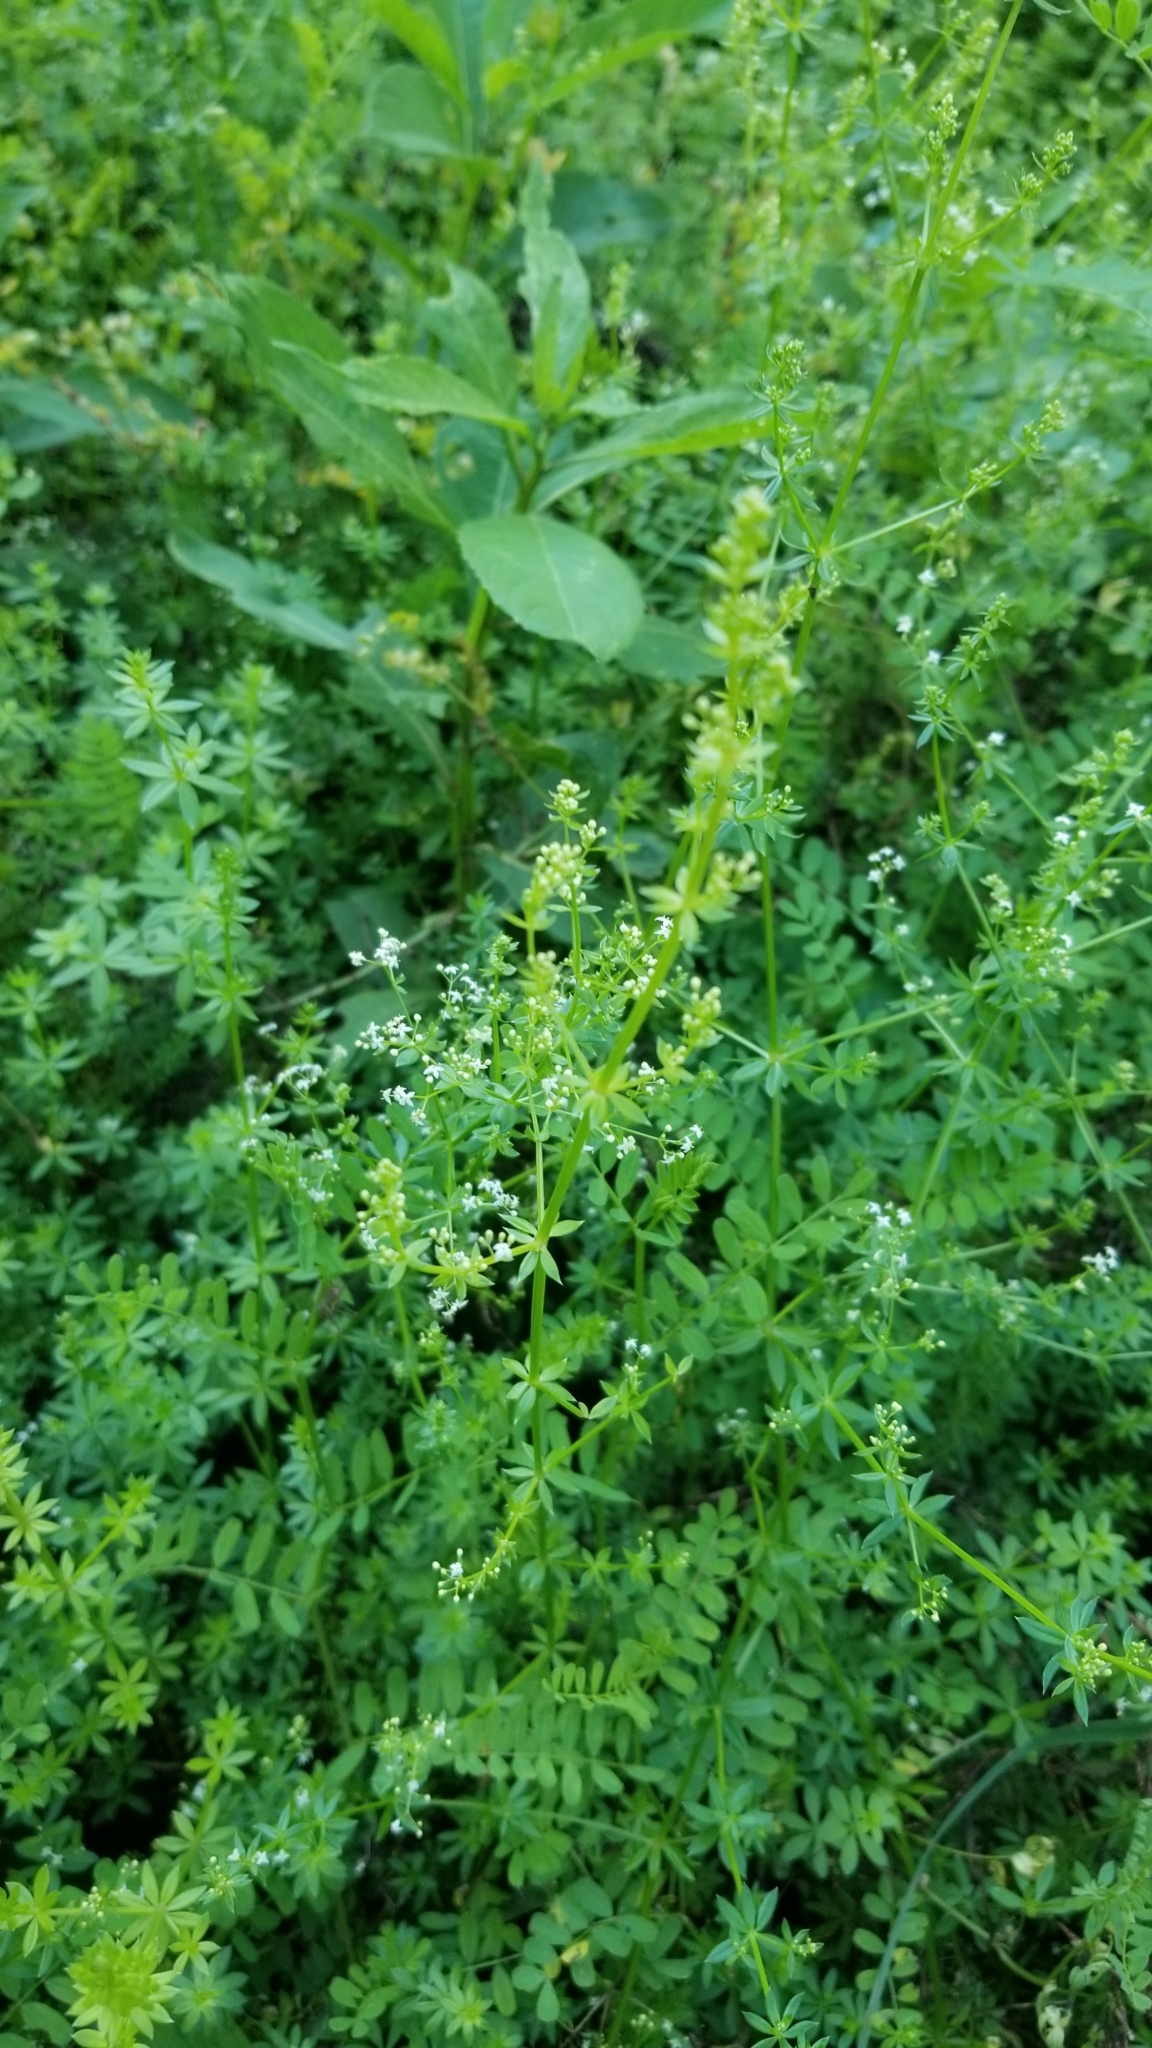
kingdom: Plantae
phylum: Tracheophyta
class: Magnoliopsida
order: Gentianales
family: Rubiaceae
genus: Galium
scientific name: Galium mollugo
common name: Hedge bedstraw
